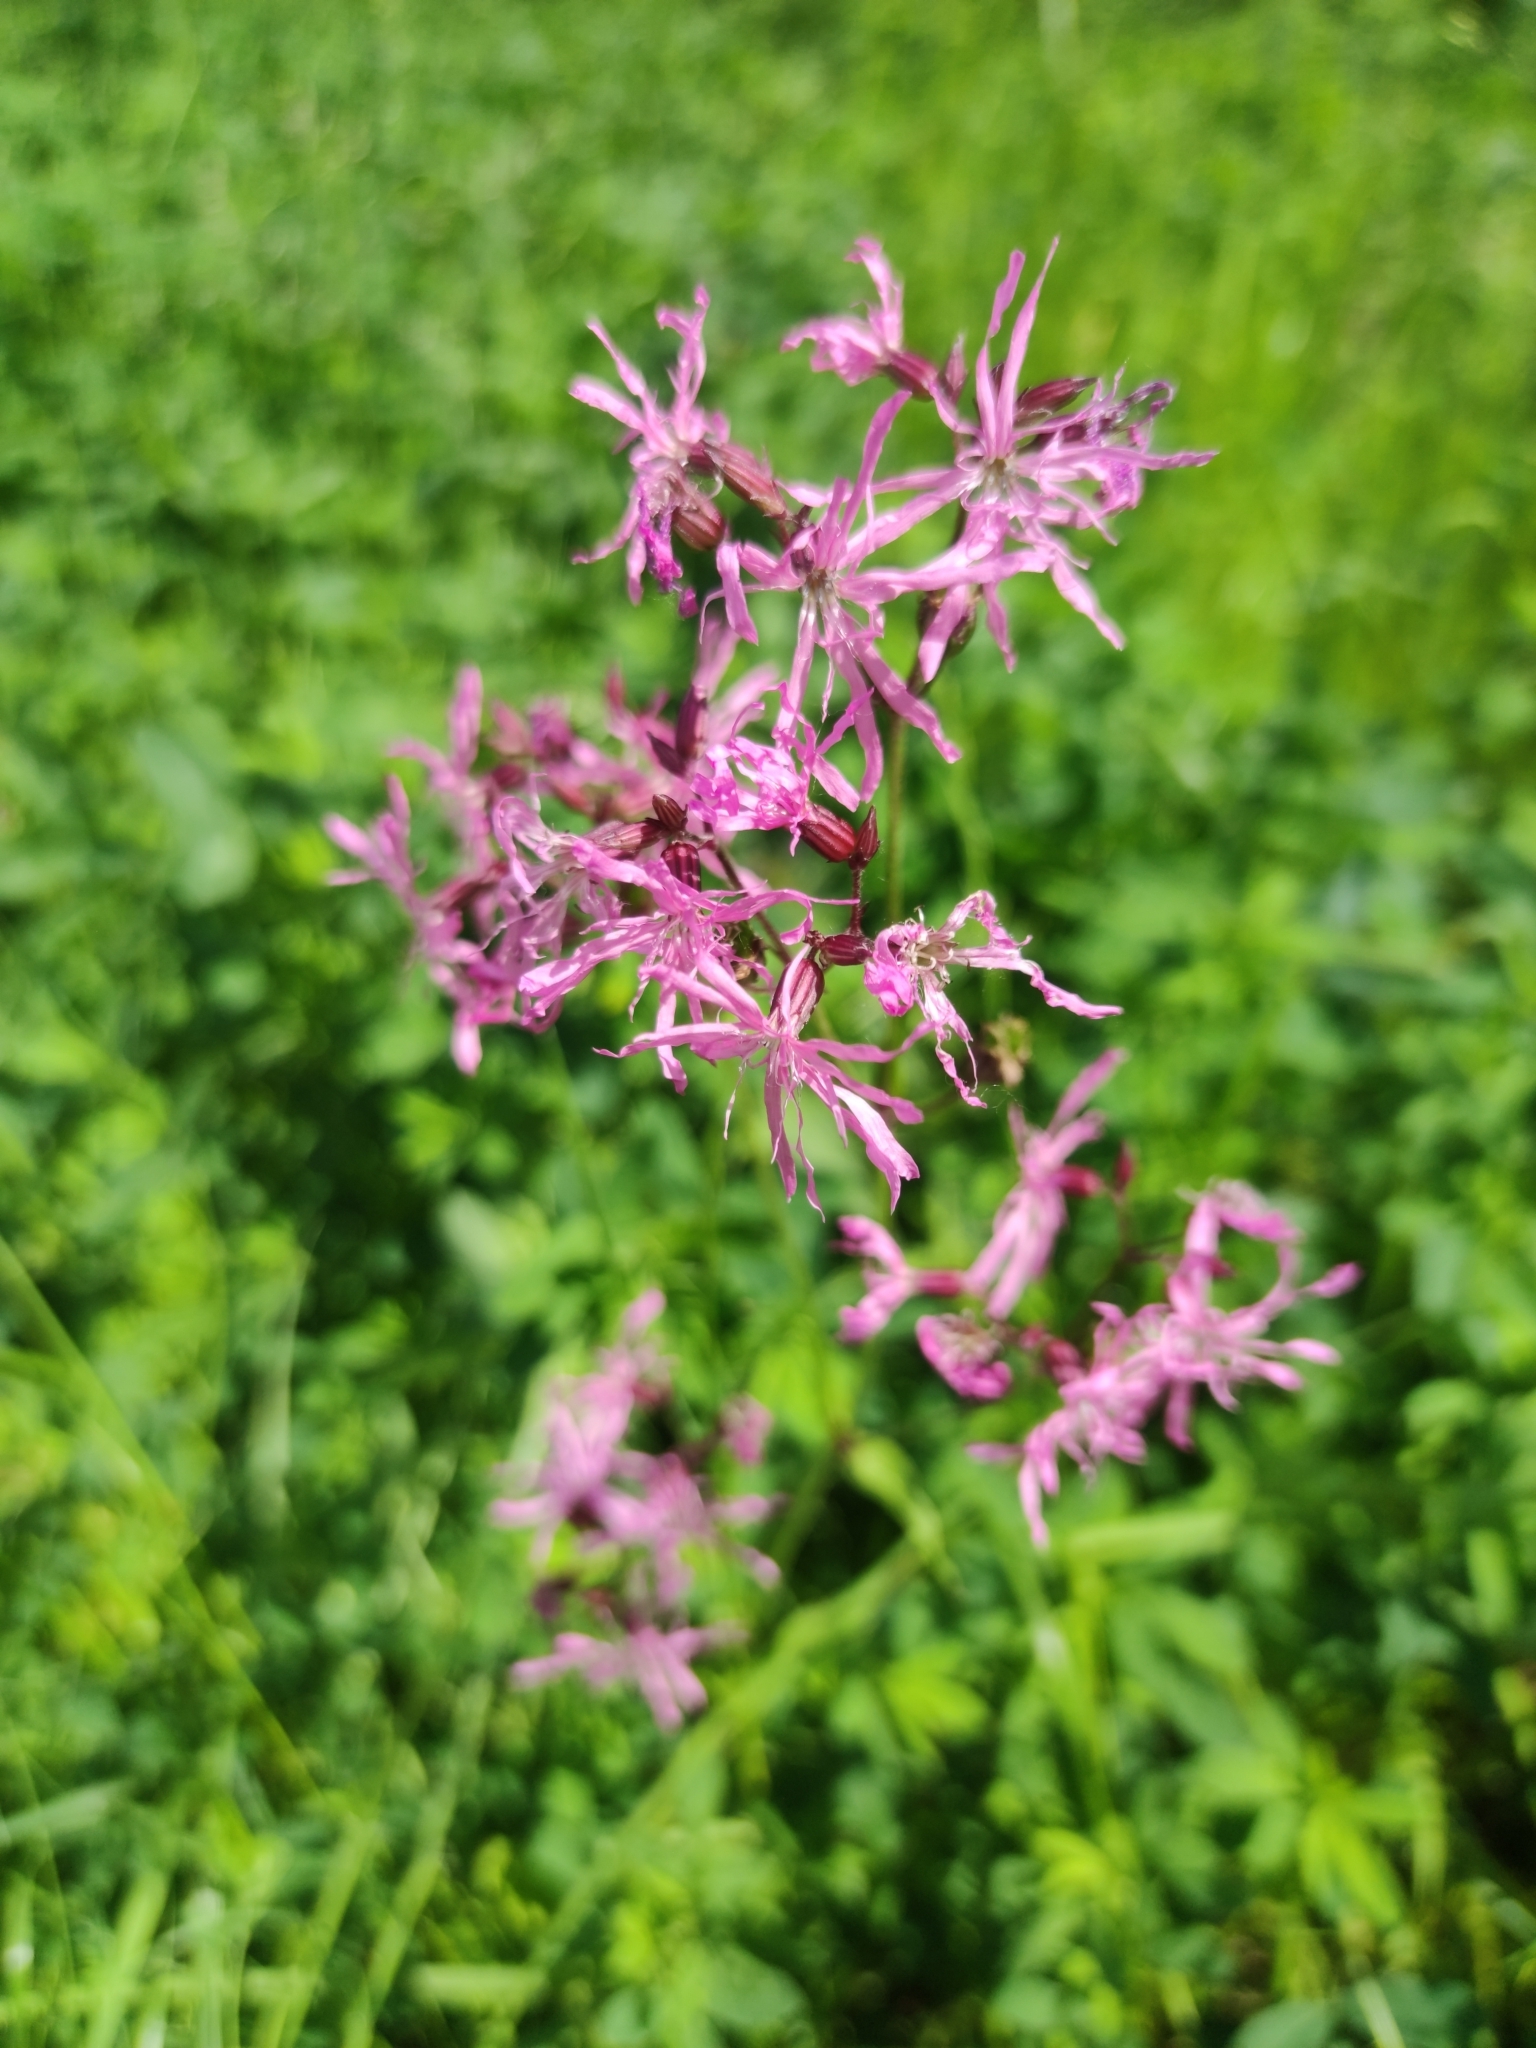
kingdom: Plantae
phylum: Tracheophyta
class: Magnoliopsida
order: Caryophyllales
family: Caryophyllaceae
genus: Silene
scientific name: Silene flos-cuculi
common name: Ragged-robin
